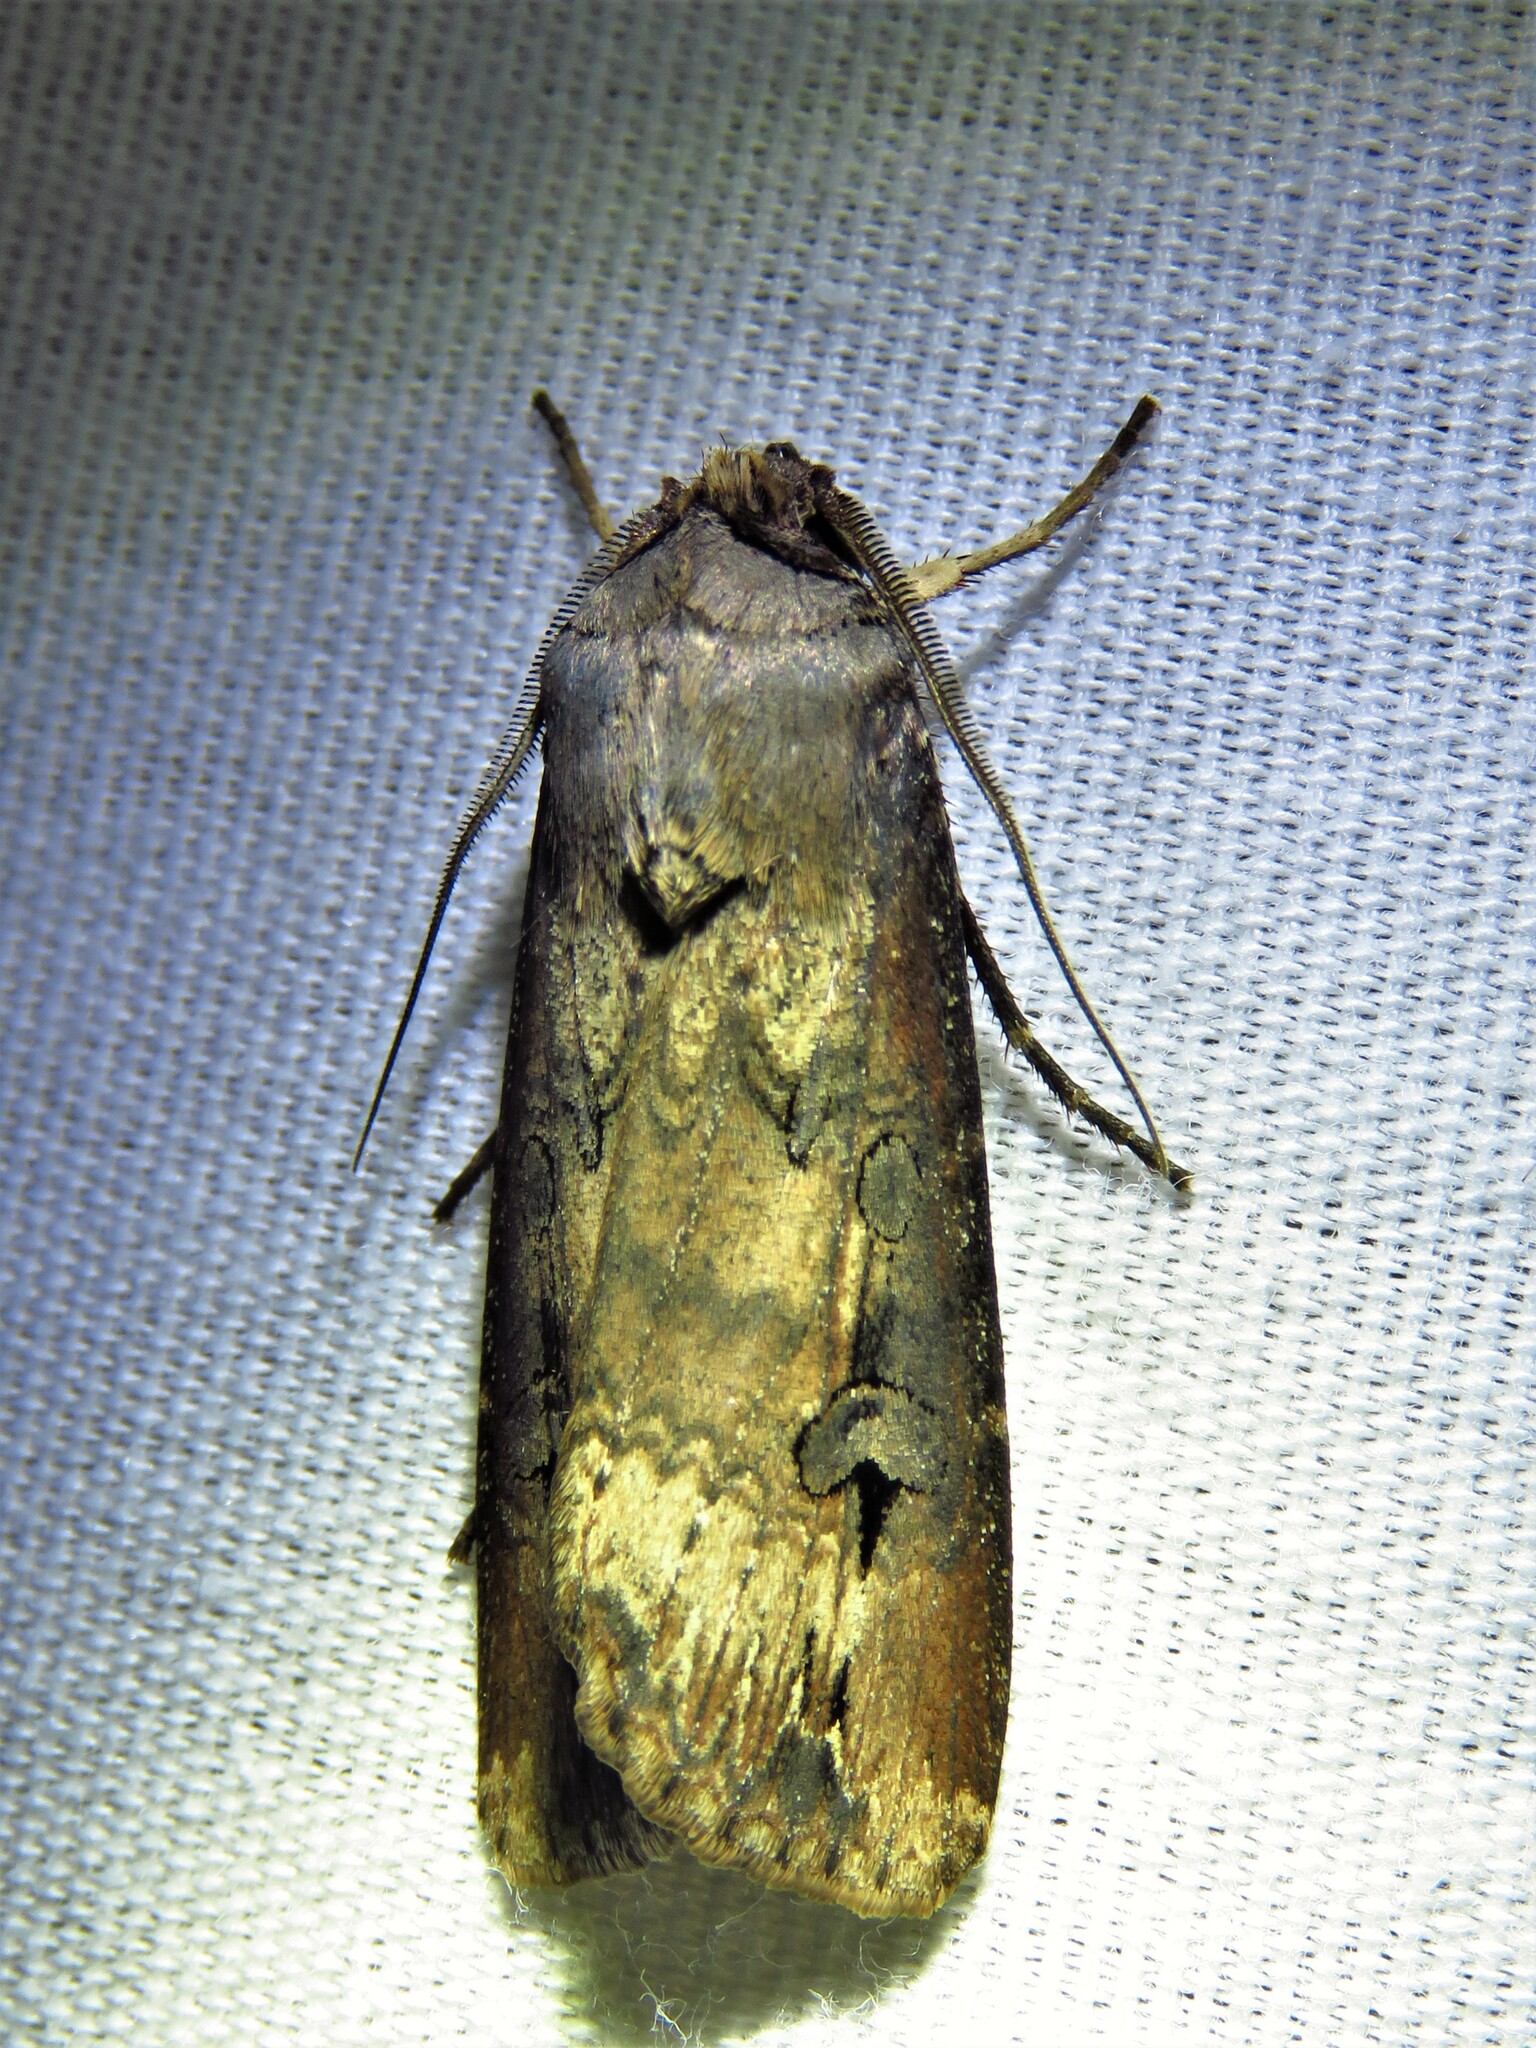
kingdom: Animalia
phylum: Arthropoda
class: Insecta
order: Lepidoptera
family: Noctuidae
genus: Agrotis
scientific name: Agrotis ipsilon
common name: Dark sword-grass
